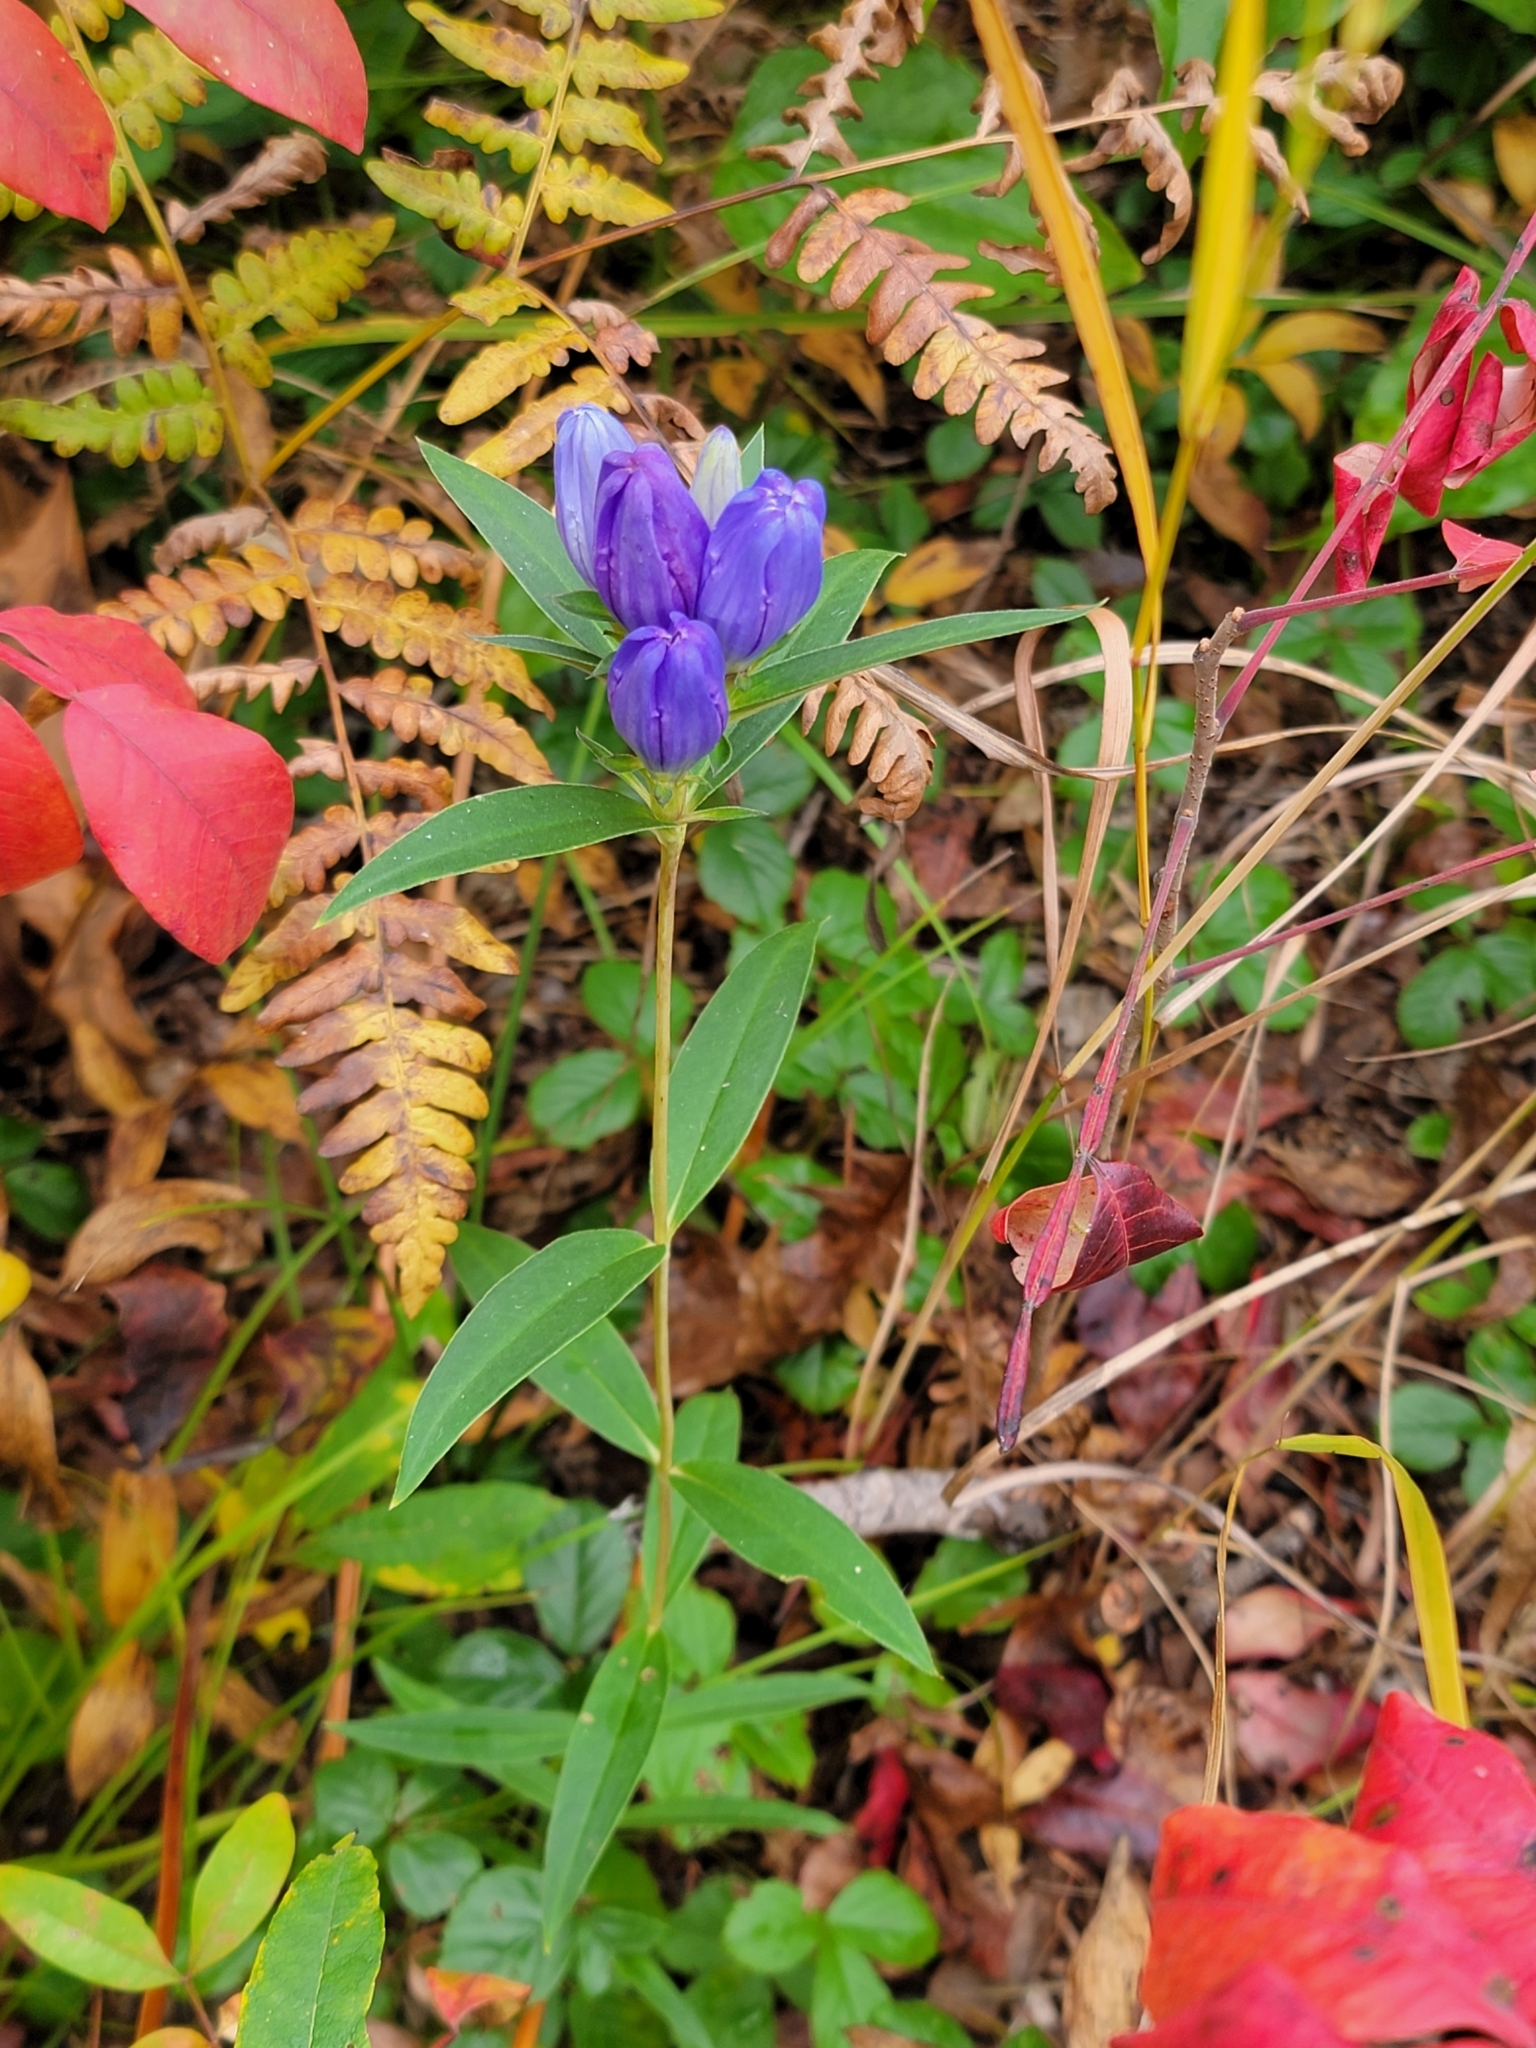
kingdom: Plantae
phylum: Tracheophyta
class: Magnoliopsida
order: Gentianales
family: Gentianaceae
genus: Gentiana
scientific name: Gentiana saponaria
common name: Soapwort gentian
